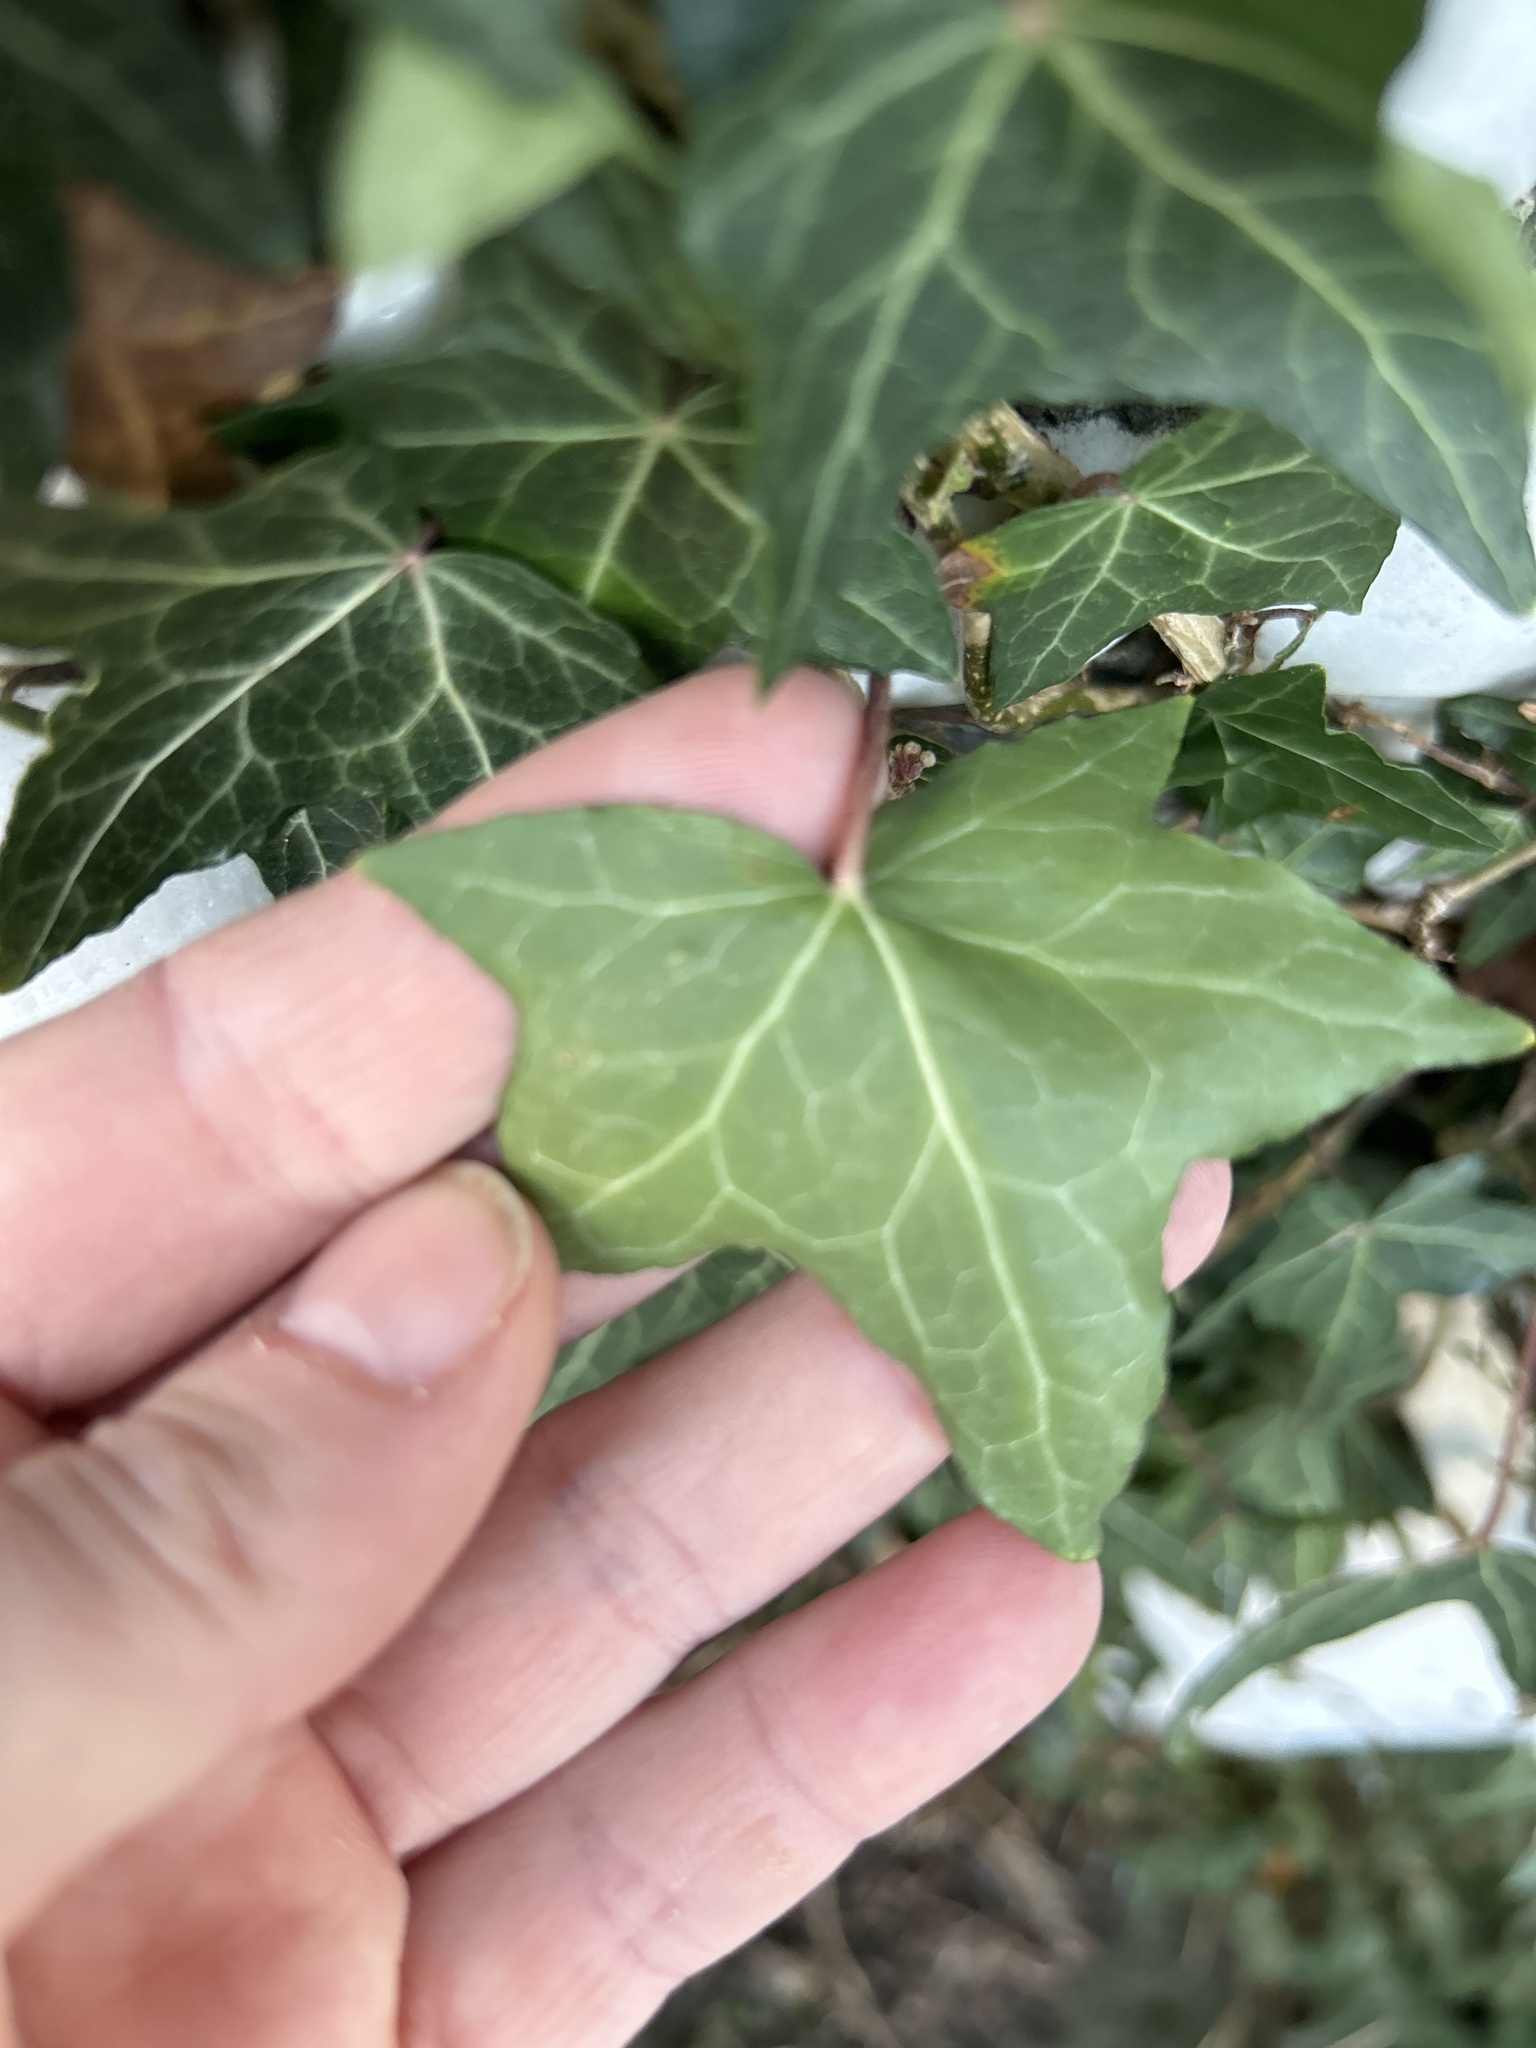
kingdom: Plantae
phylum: Tracheophyta
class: Magnoliopsida
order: Apiales
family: Araliaceae
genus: Hedera
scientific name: Hedera helix
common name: Ivy
